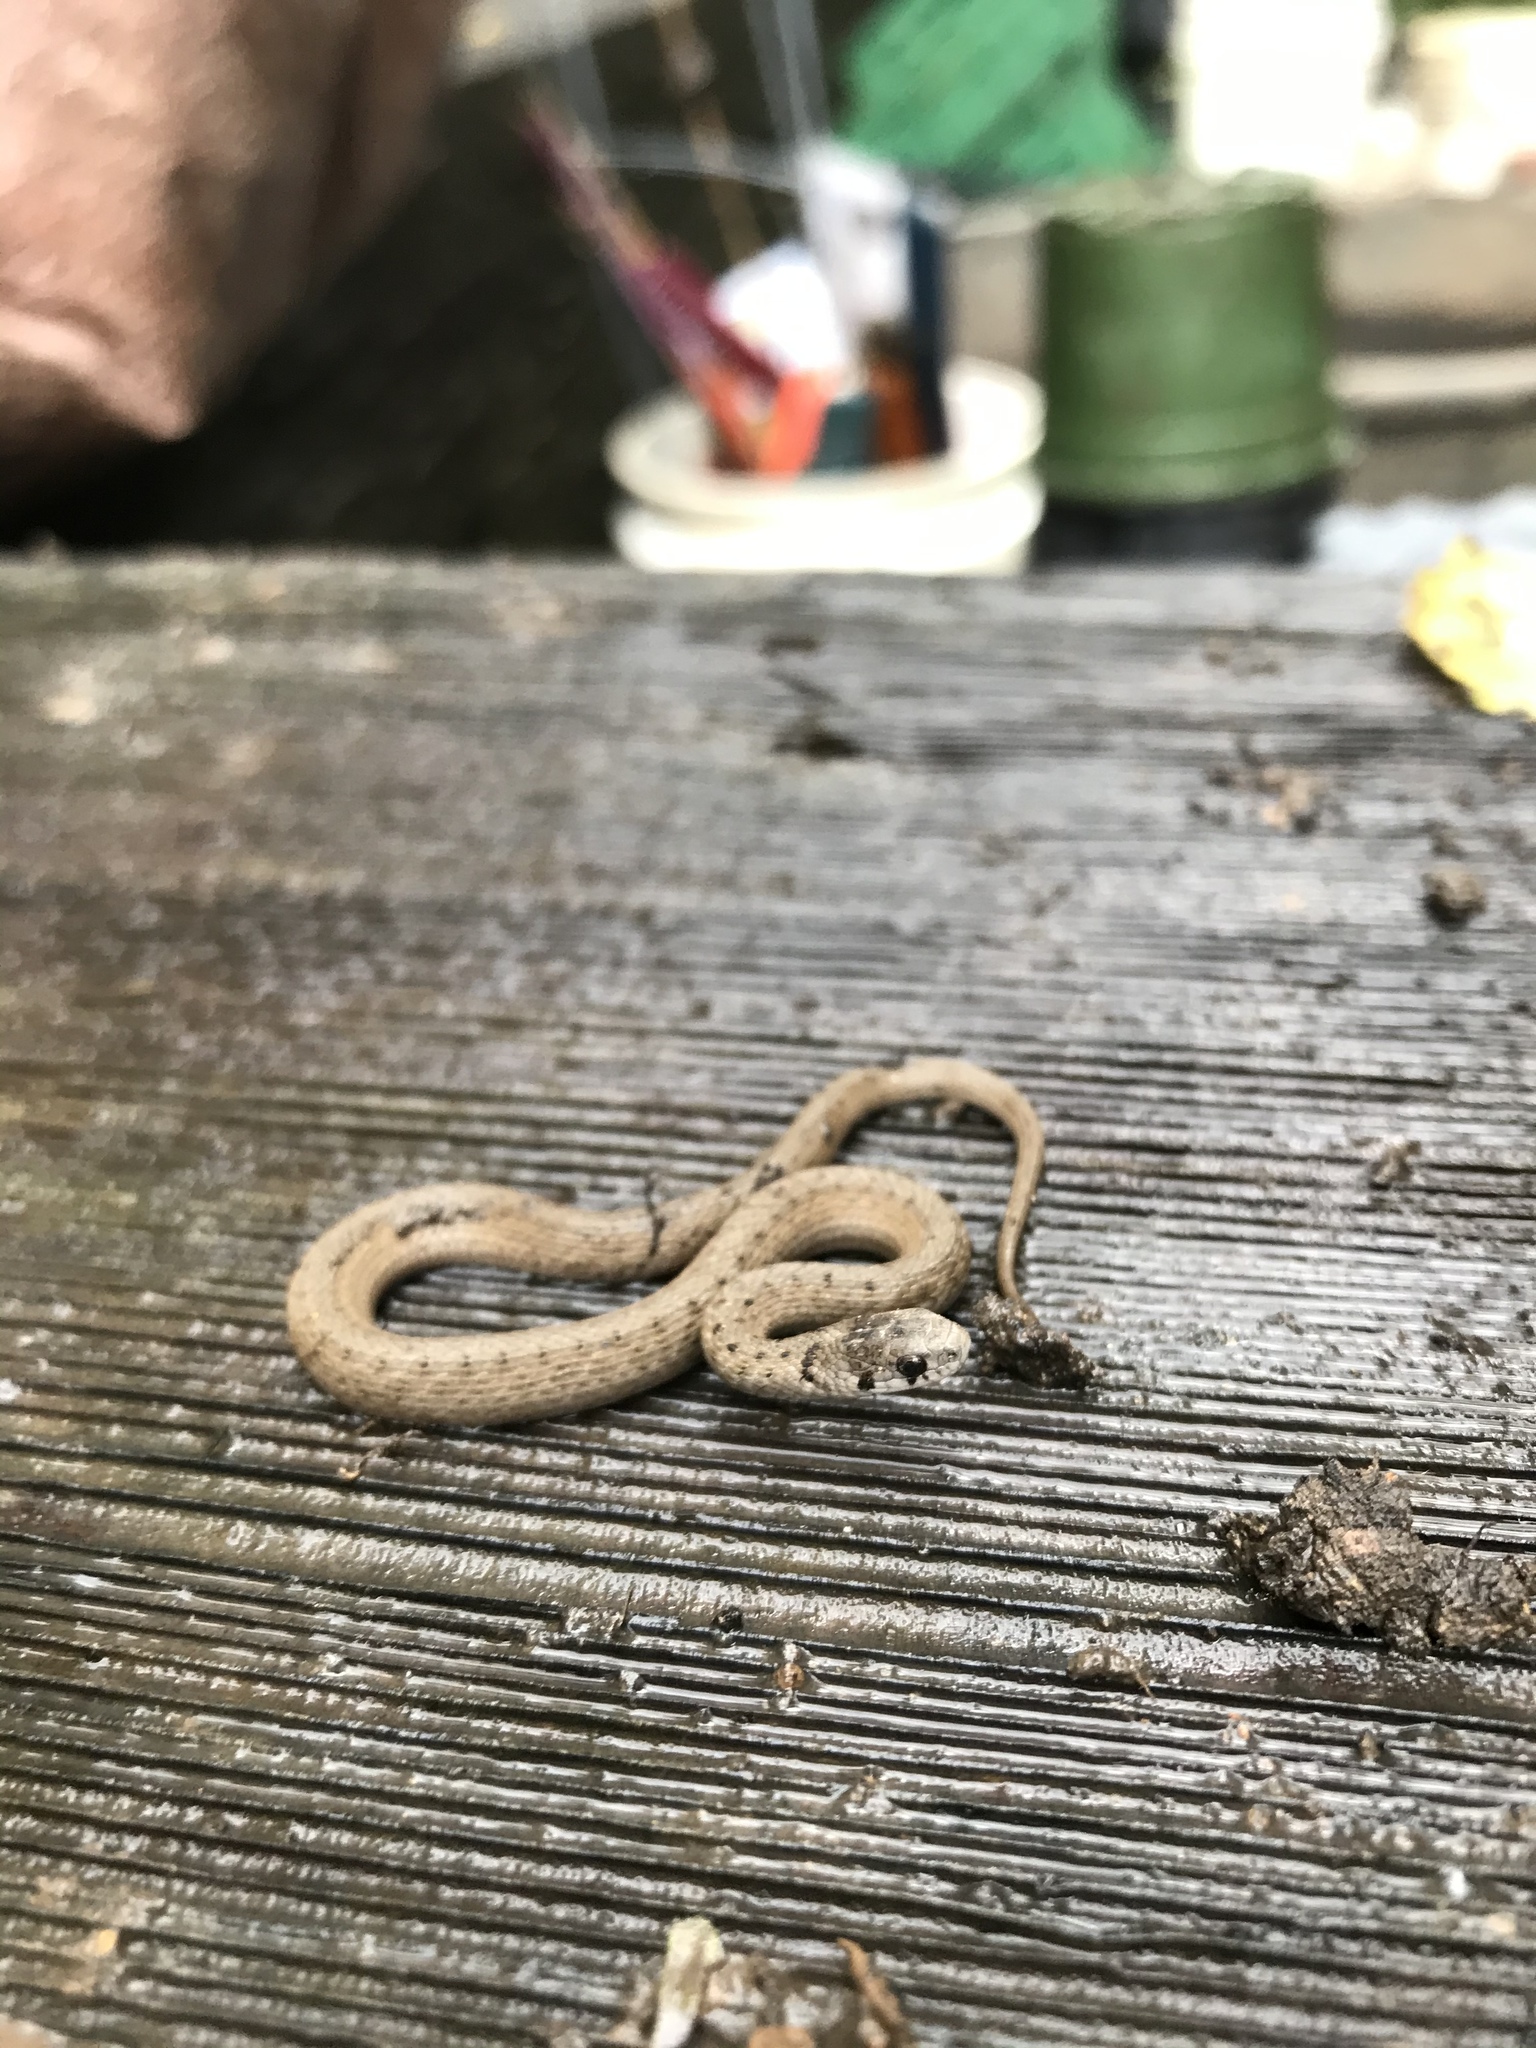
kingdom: Animalia
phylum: Chordata
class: Squamata
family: Colubridae
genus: Storeria
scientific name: Storeria dekayi
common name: (dekay’s) brown snake
